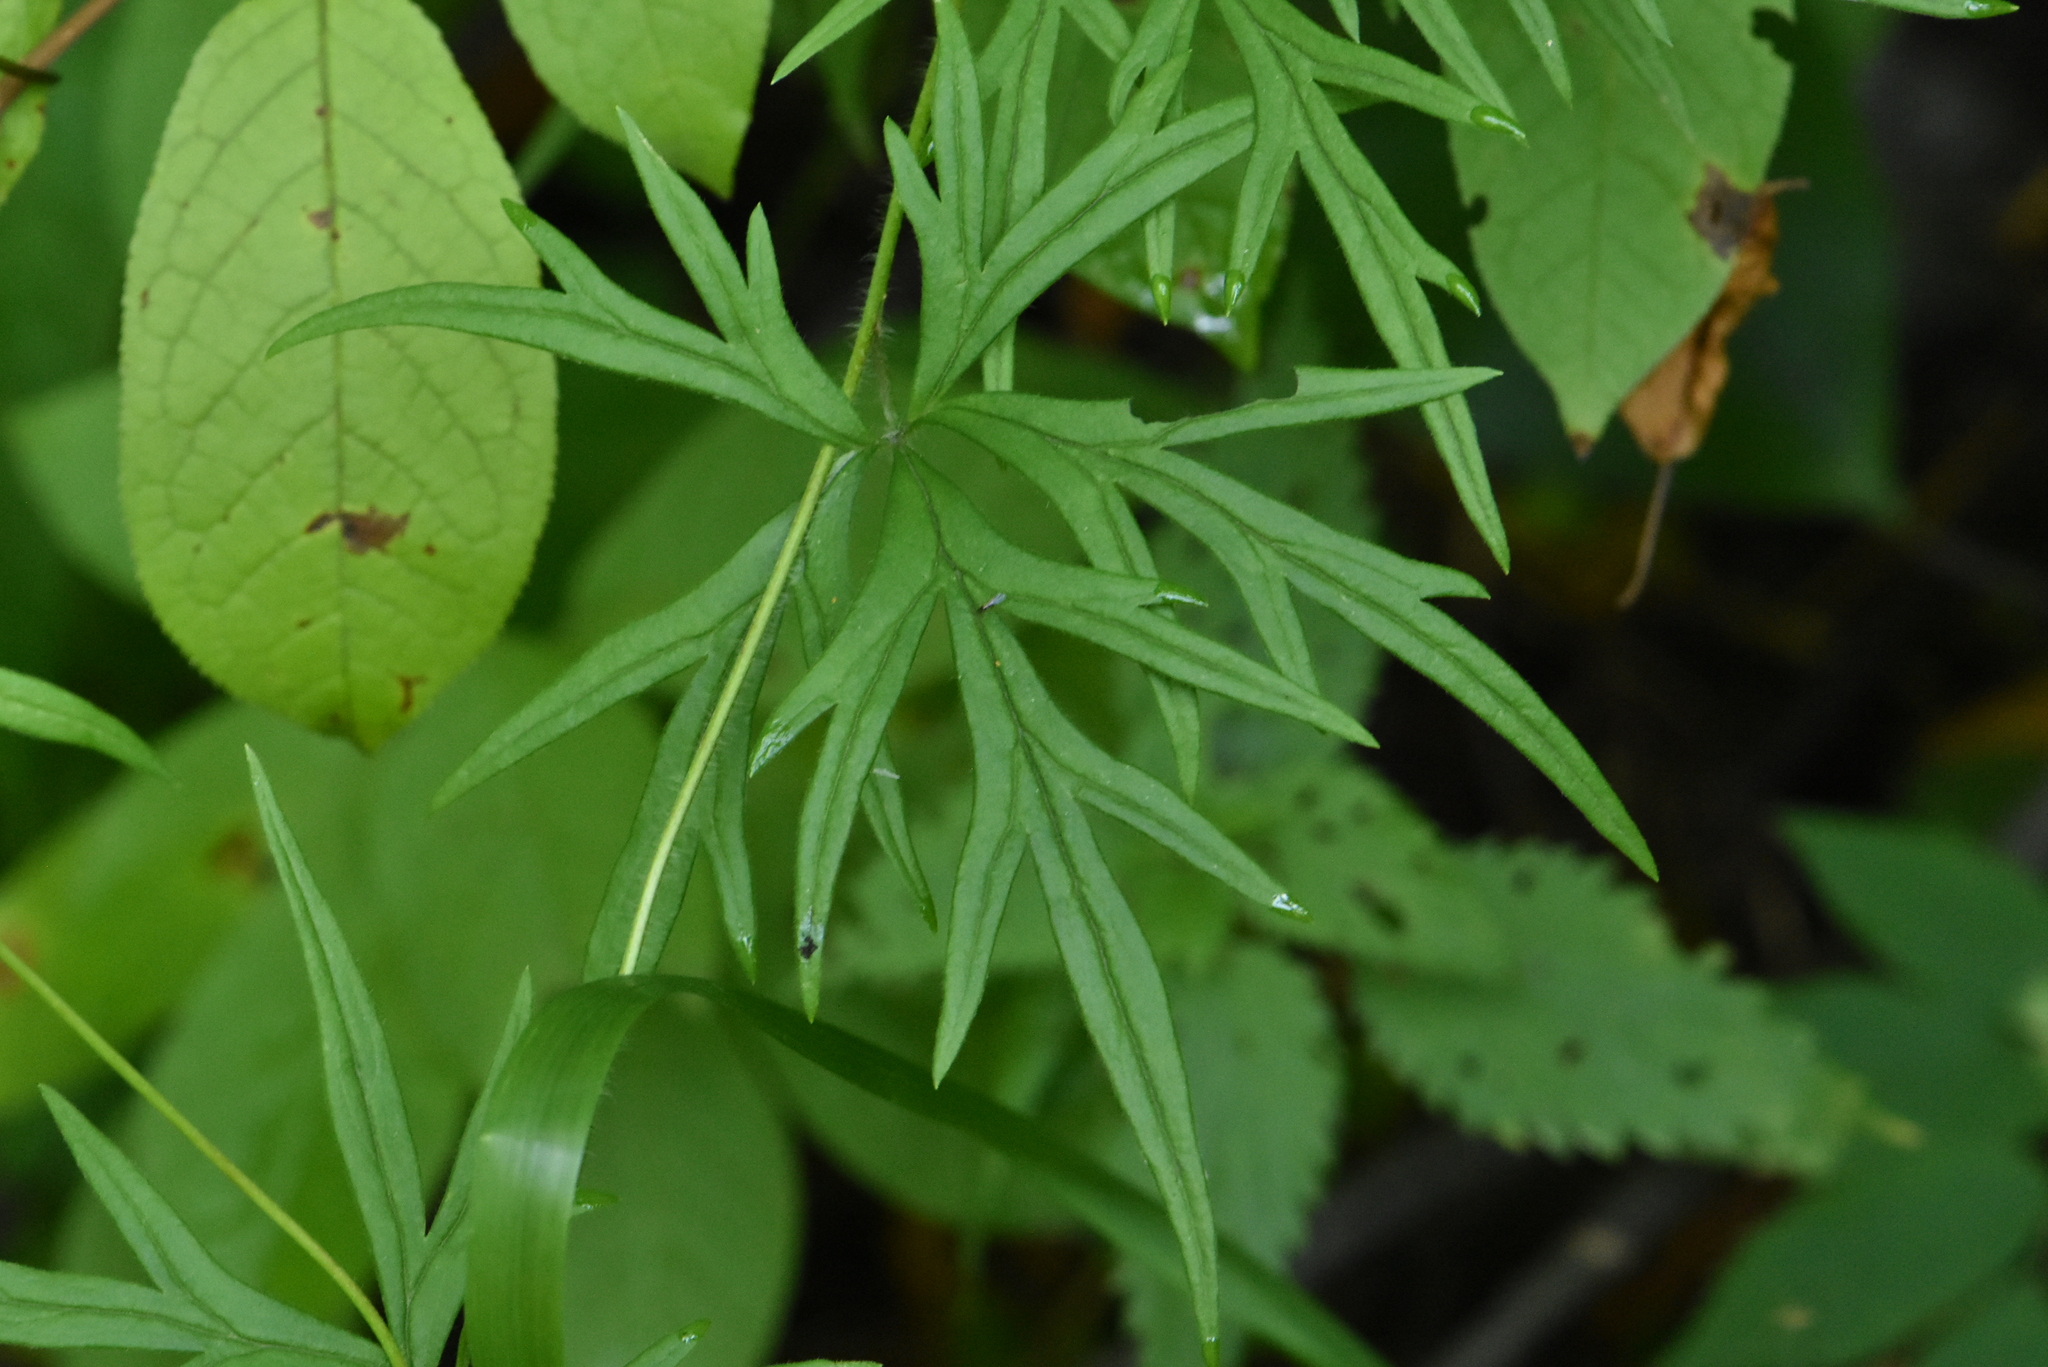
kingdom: Plantae
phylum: Tracheophyta
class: Magnoliopsida
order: Ranunculales
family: Ranunculaceae
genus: Aconitum
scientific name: Aconitum volubile
